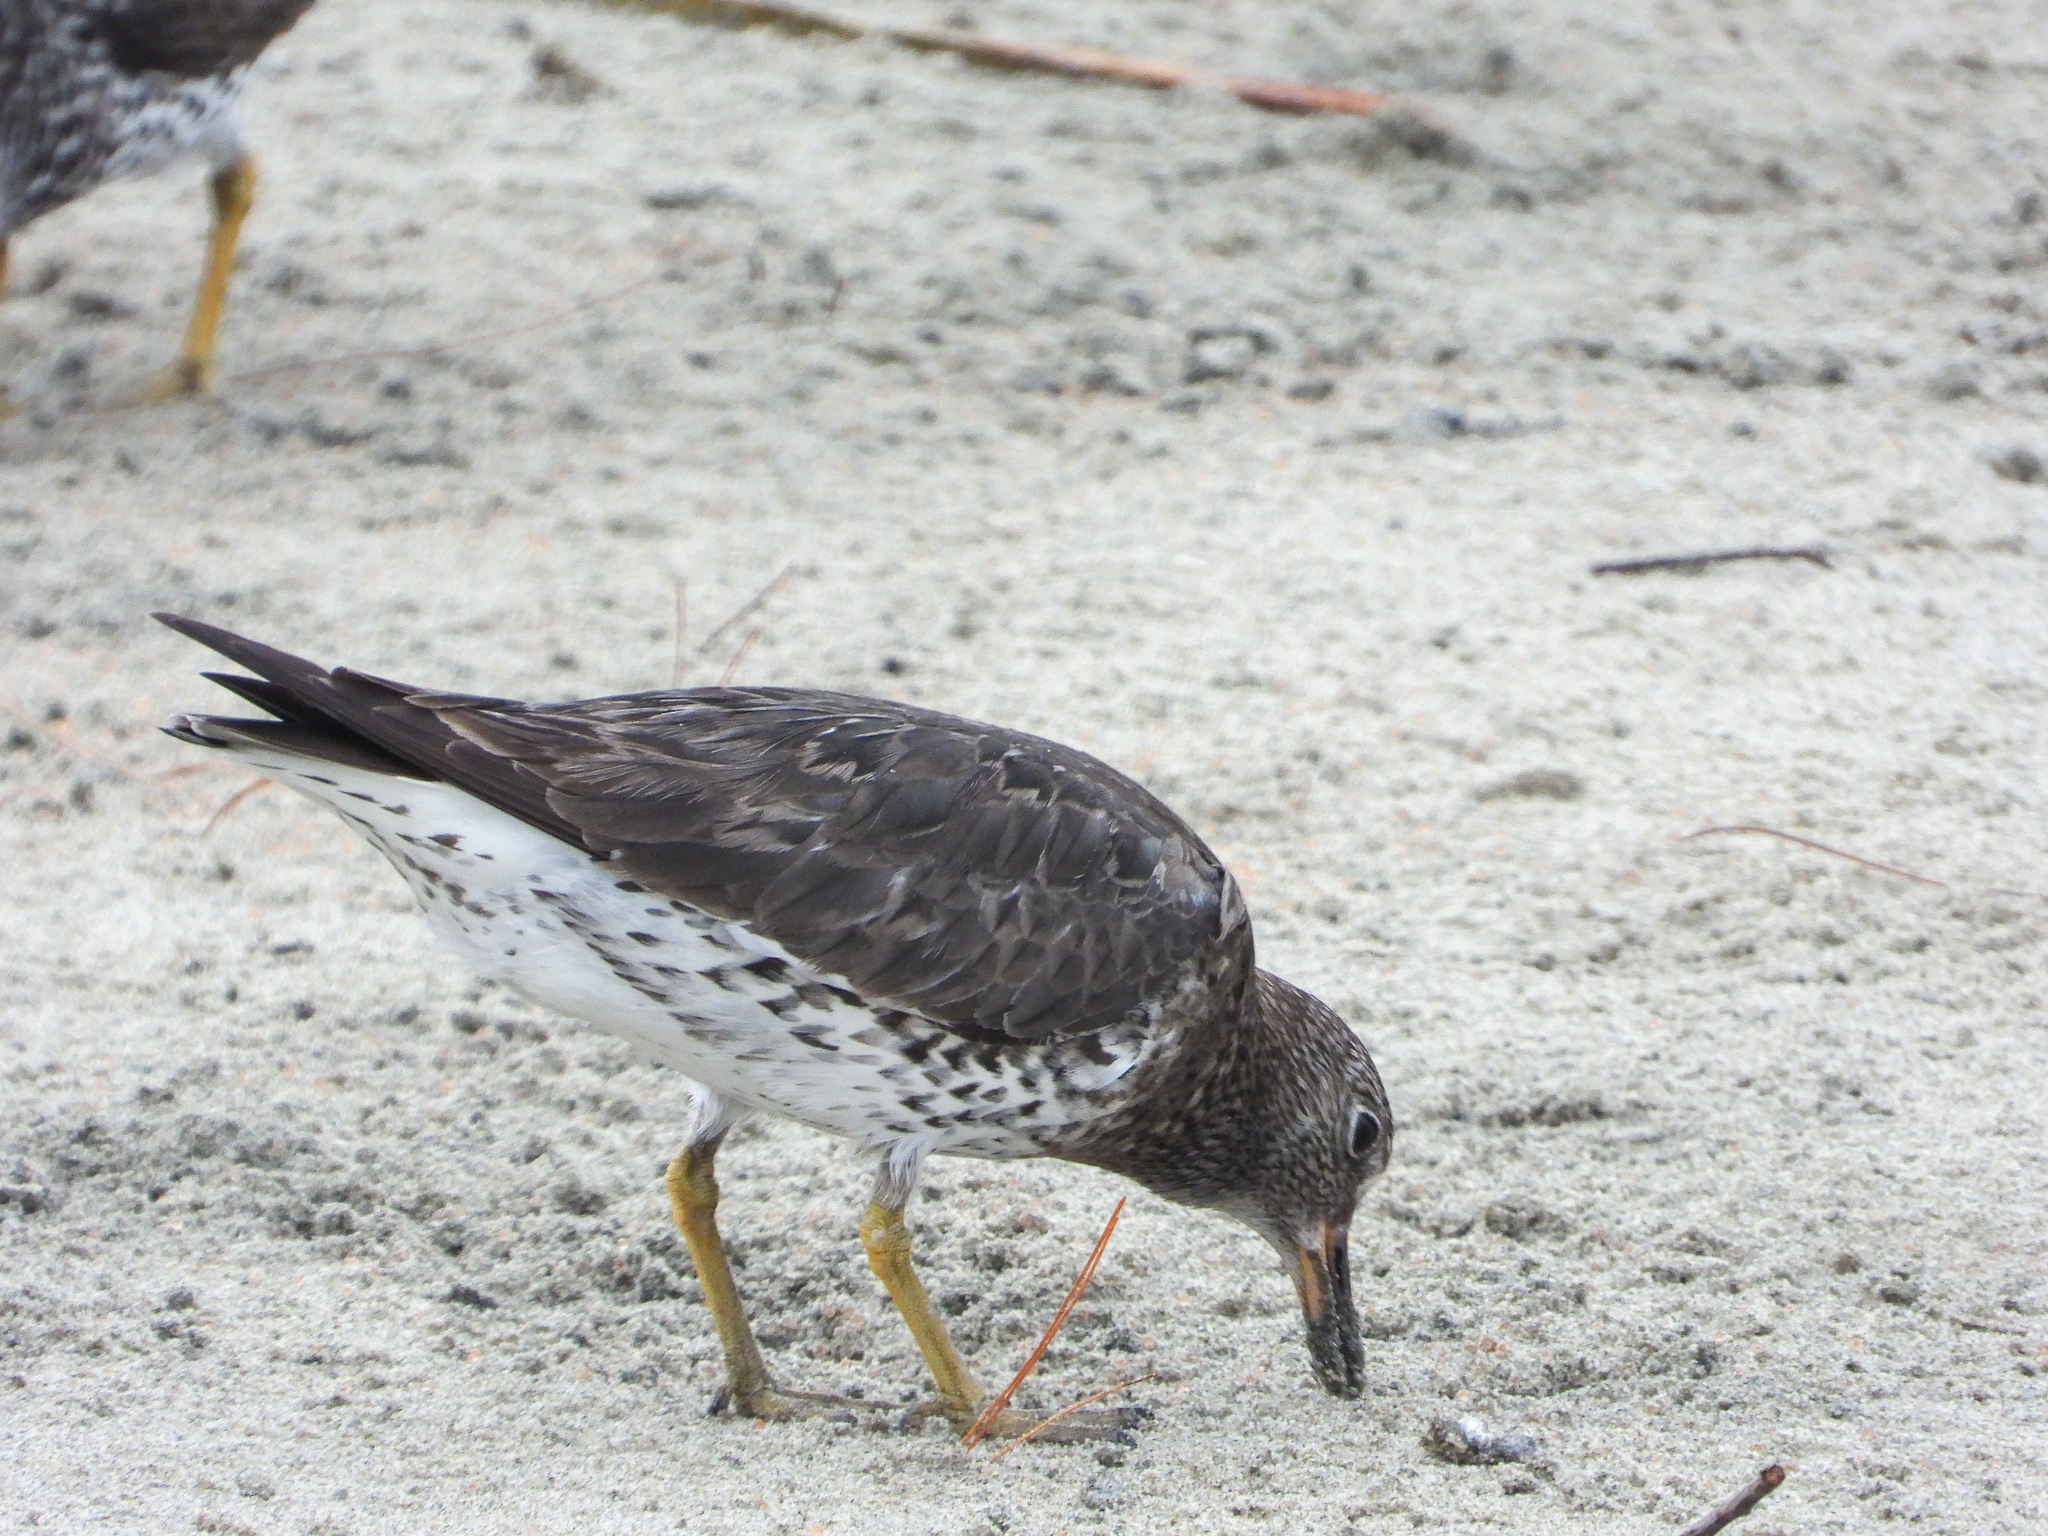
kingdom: Animalia
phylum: Chordata
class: Aves
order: Charadriiformes
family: Scolopacidae
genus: Calidris
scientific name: Calidris virgata
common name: Surfbird
